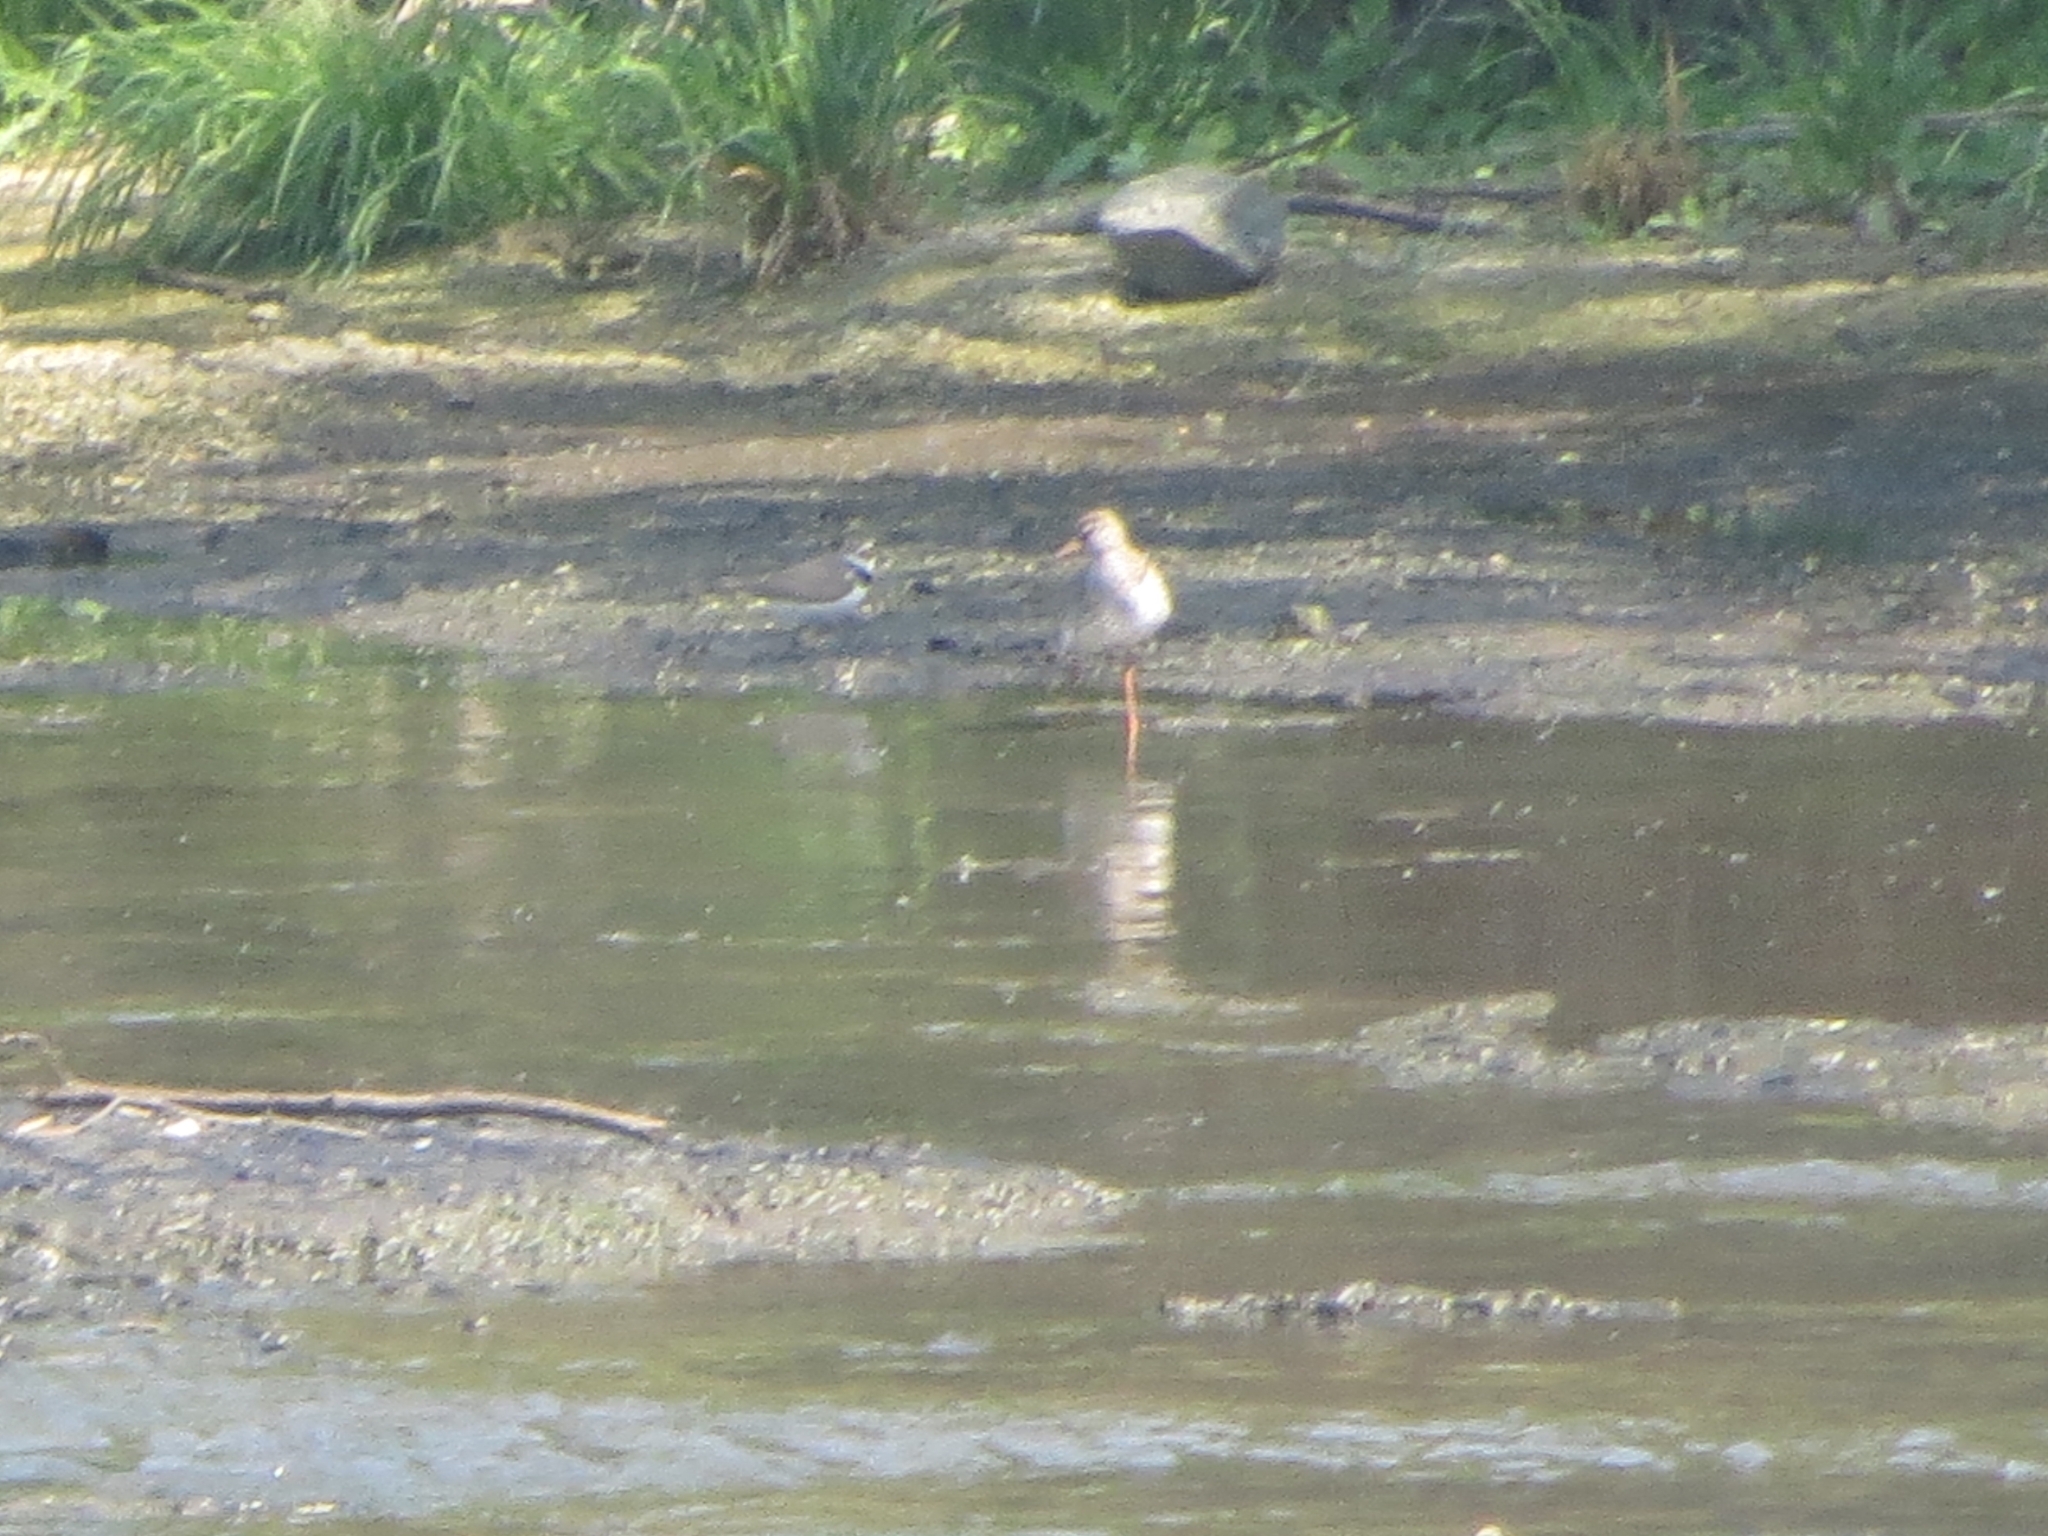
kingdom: Animalia
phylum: Chordata
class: Aves
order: Charadriiformes
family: Scolopacidae
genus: Tringa
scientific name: Tringa totanus
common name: Common redshank
